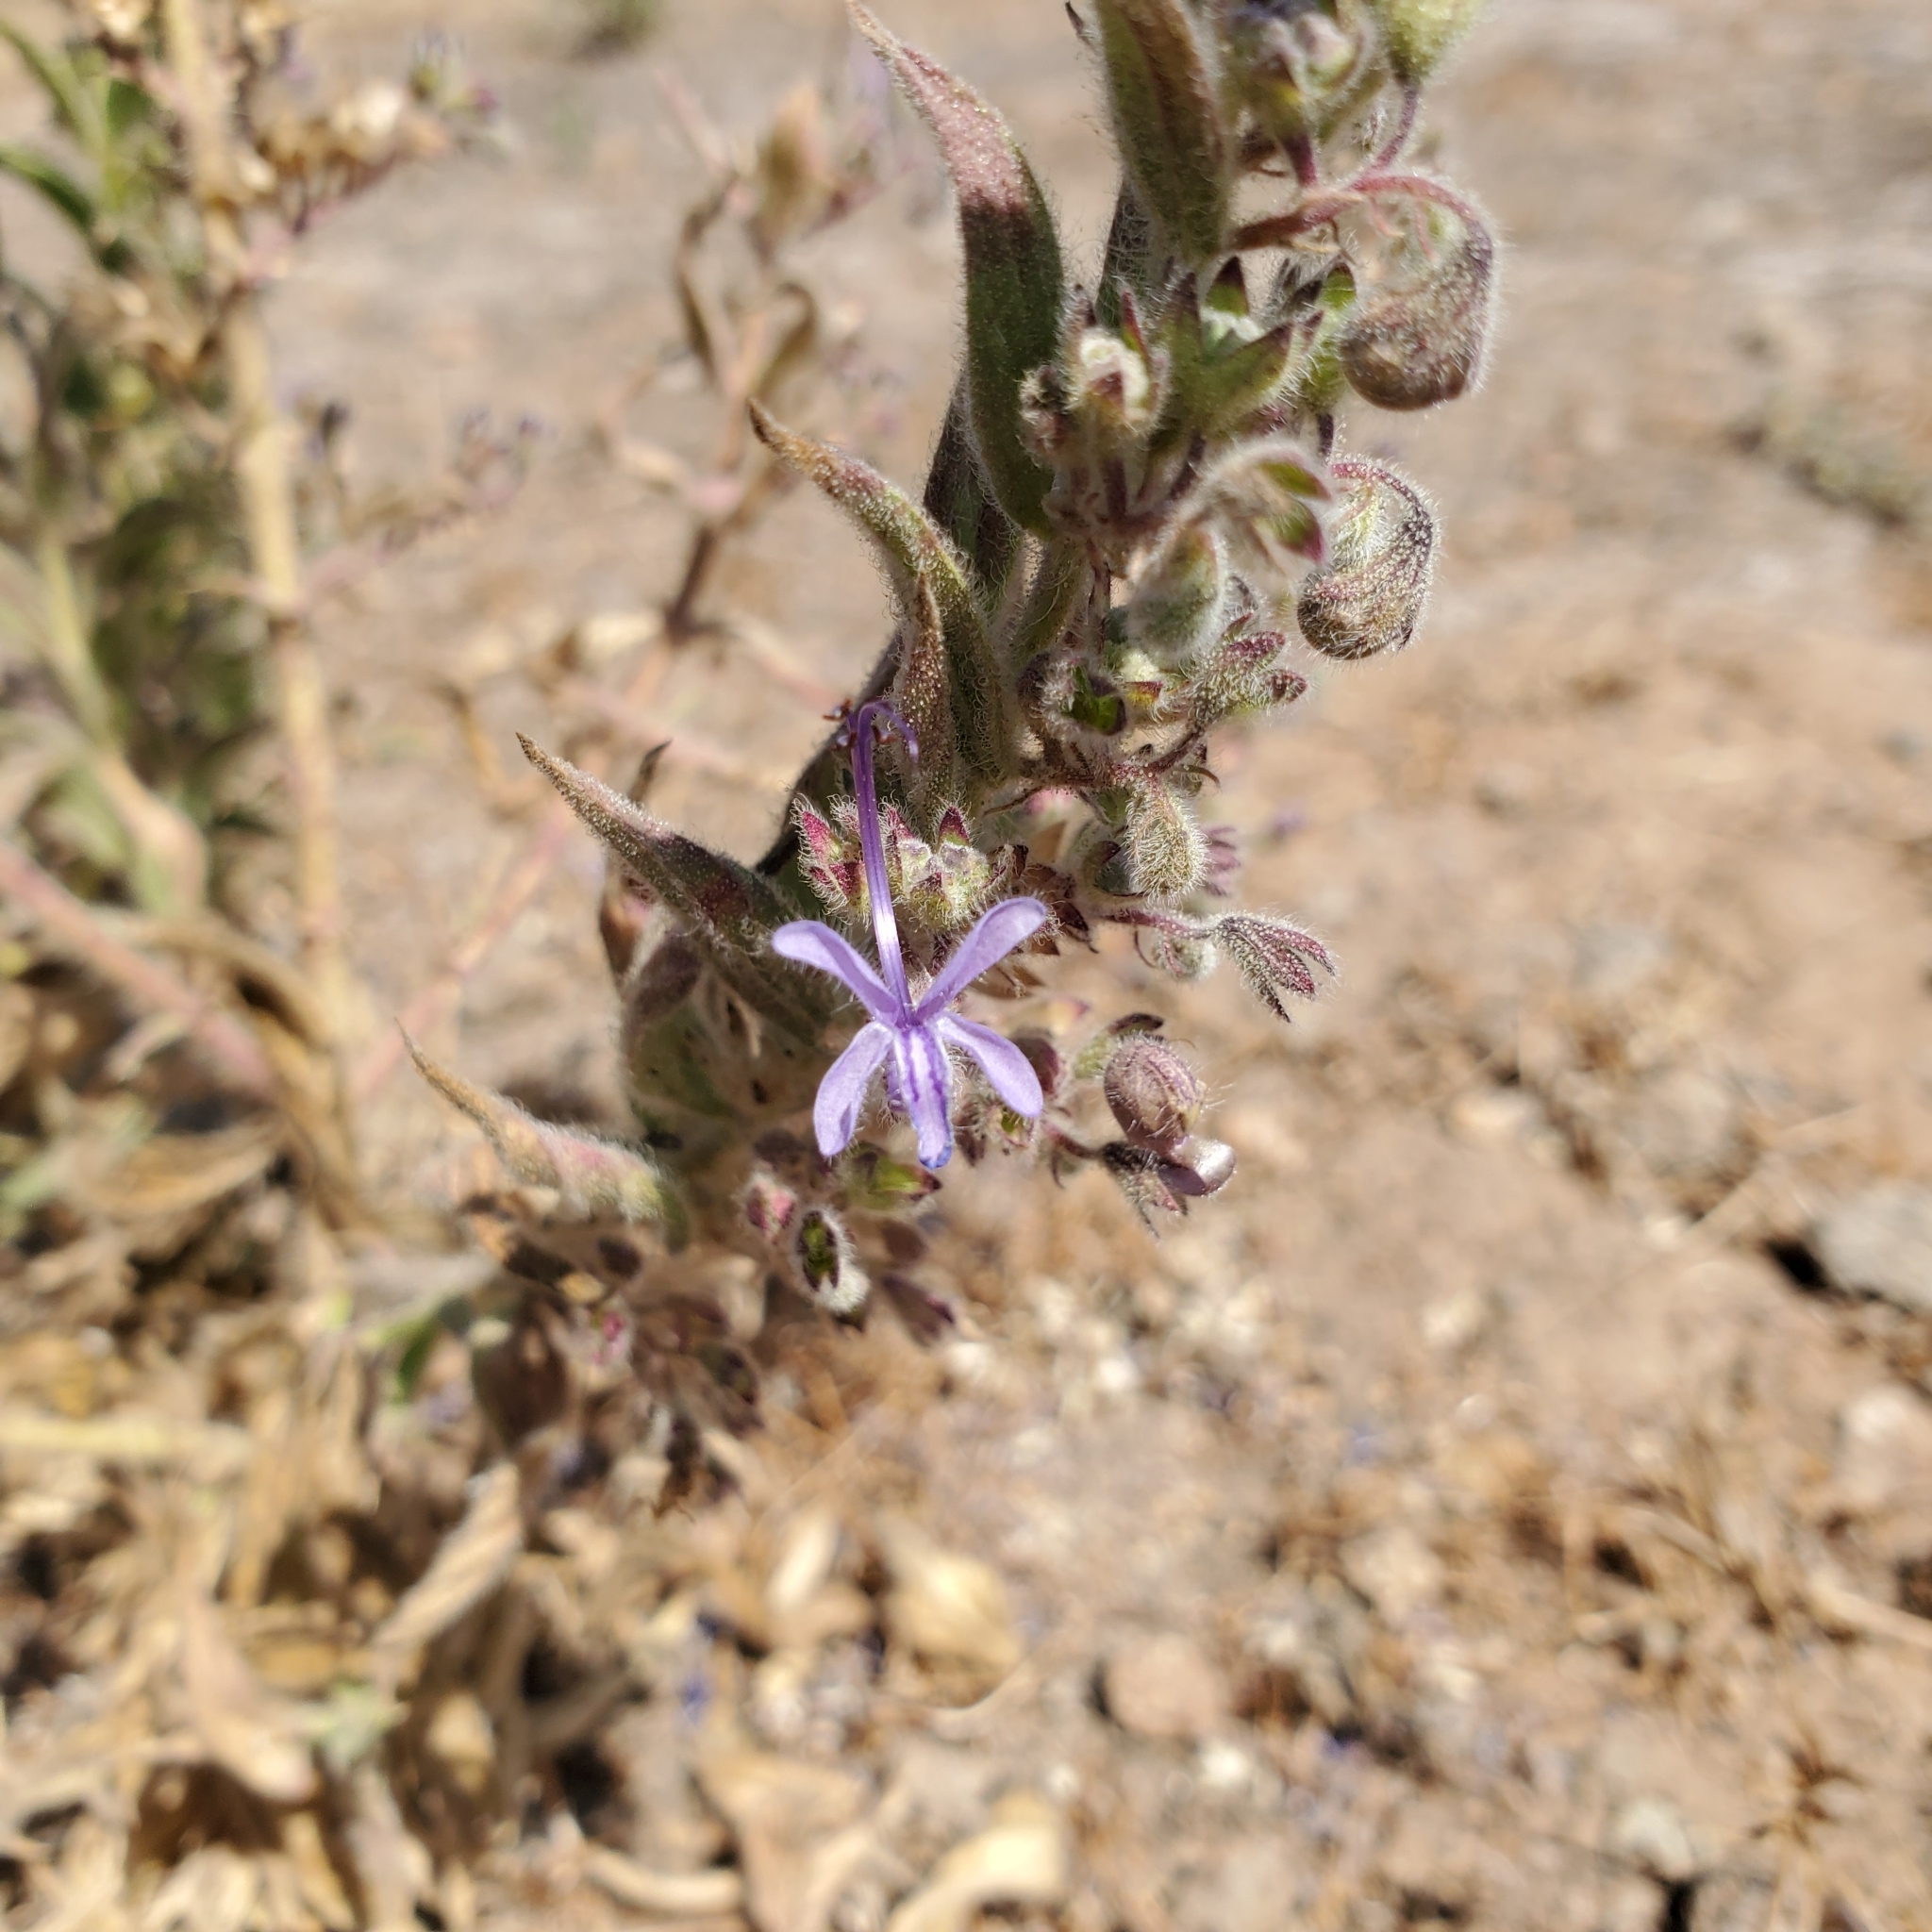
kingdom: Plantae
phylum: Tracheophyta
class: Magnoliopsida
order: Lamiales
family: Lamiaceae
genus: Trichostema
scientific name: Trichostema lanceolatum
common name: Vinegar-weed
